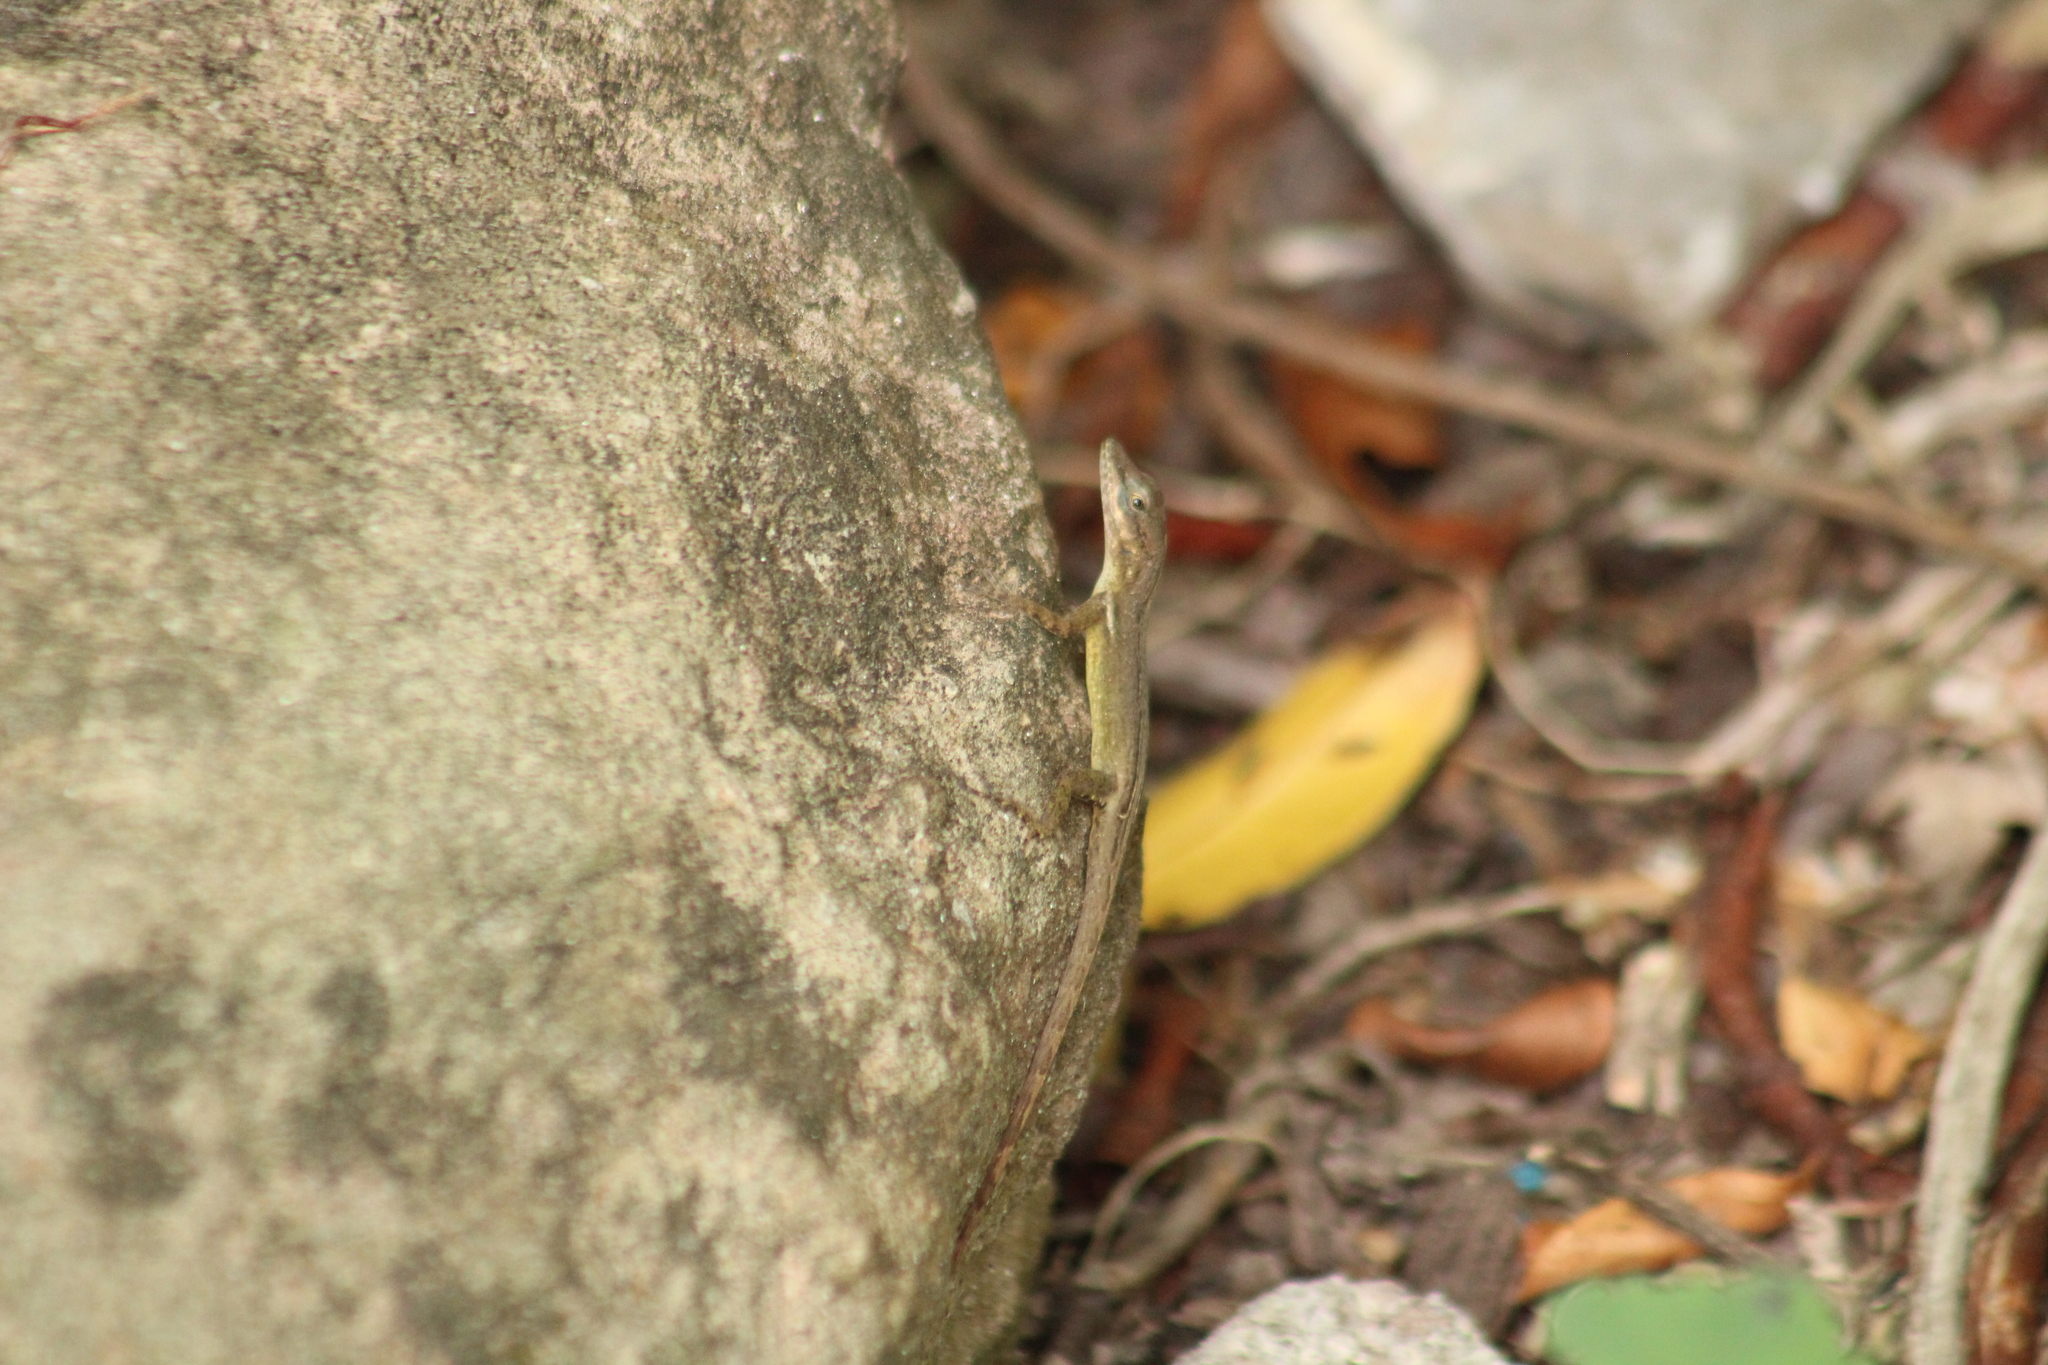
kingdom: Animalia
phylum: Chordata
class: Squamata
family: Dactyloidae
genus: Anolis
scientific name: Anolis sabanus
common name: Saba anole
